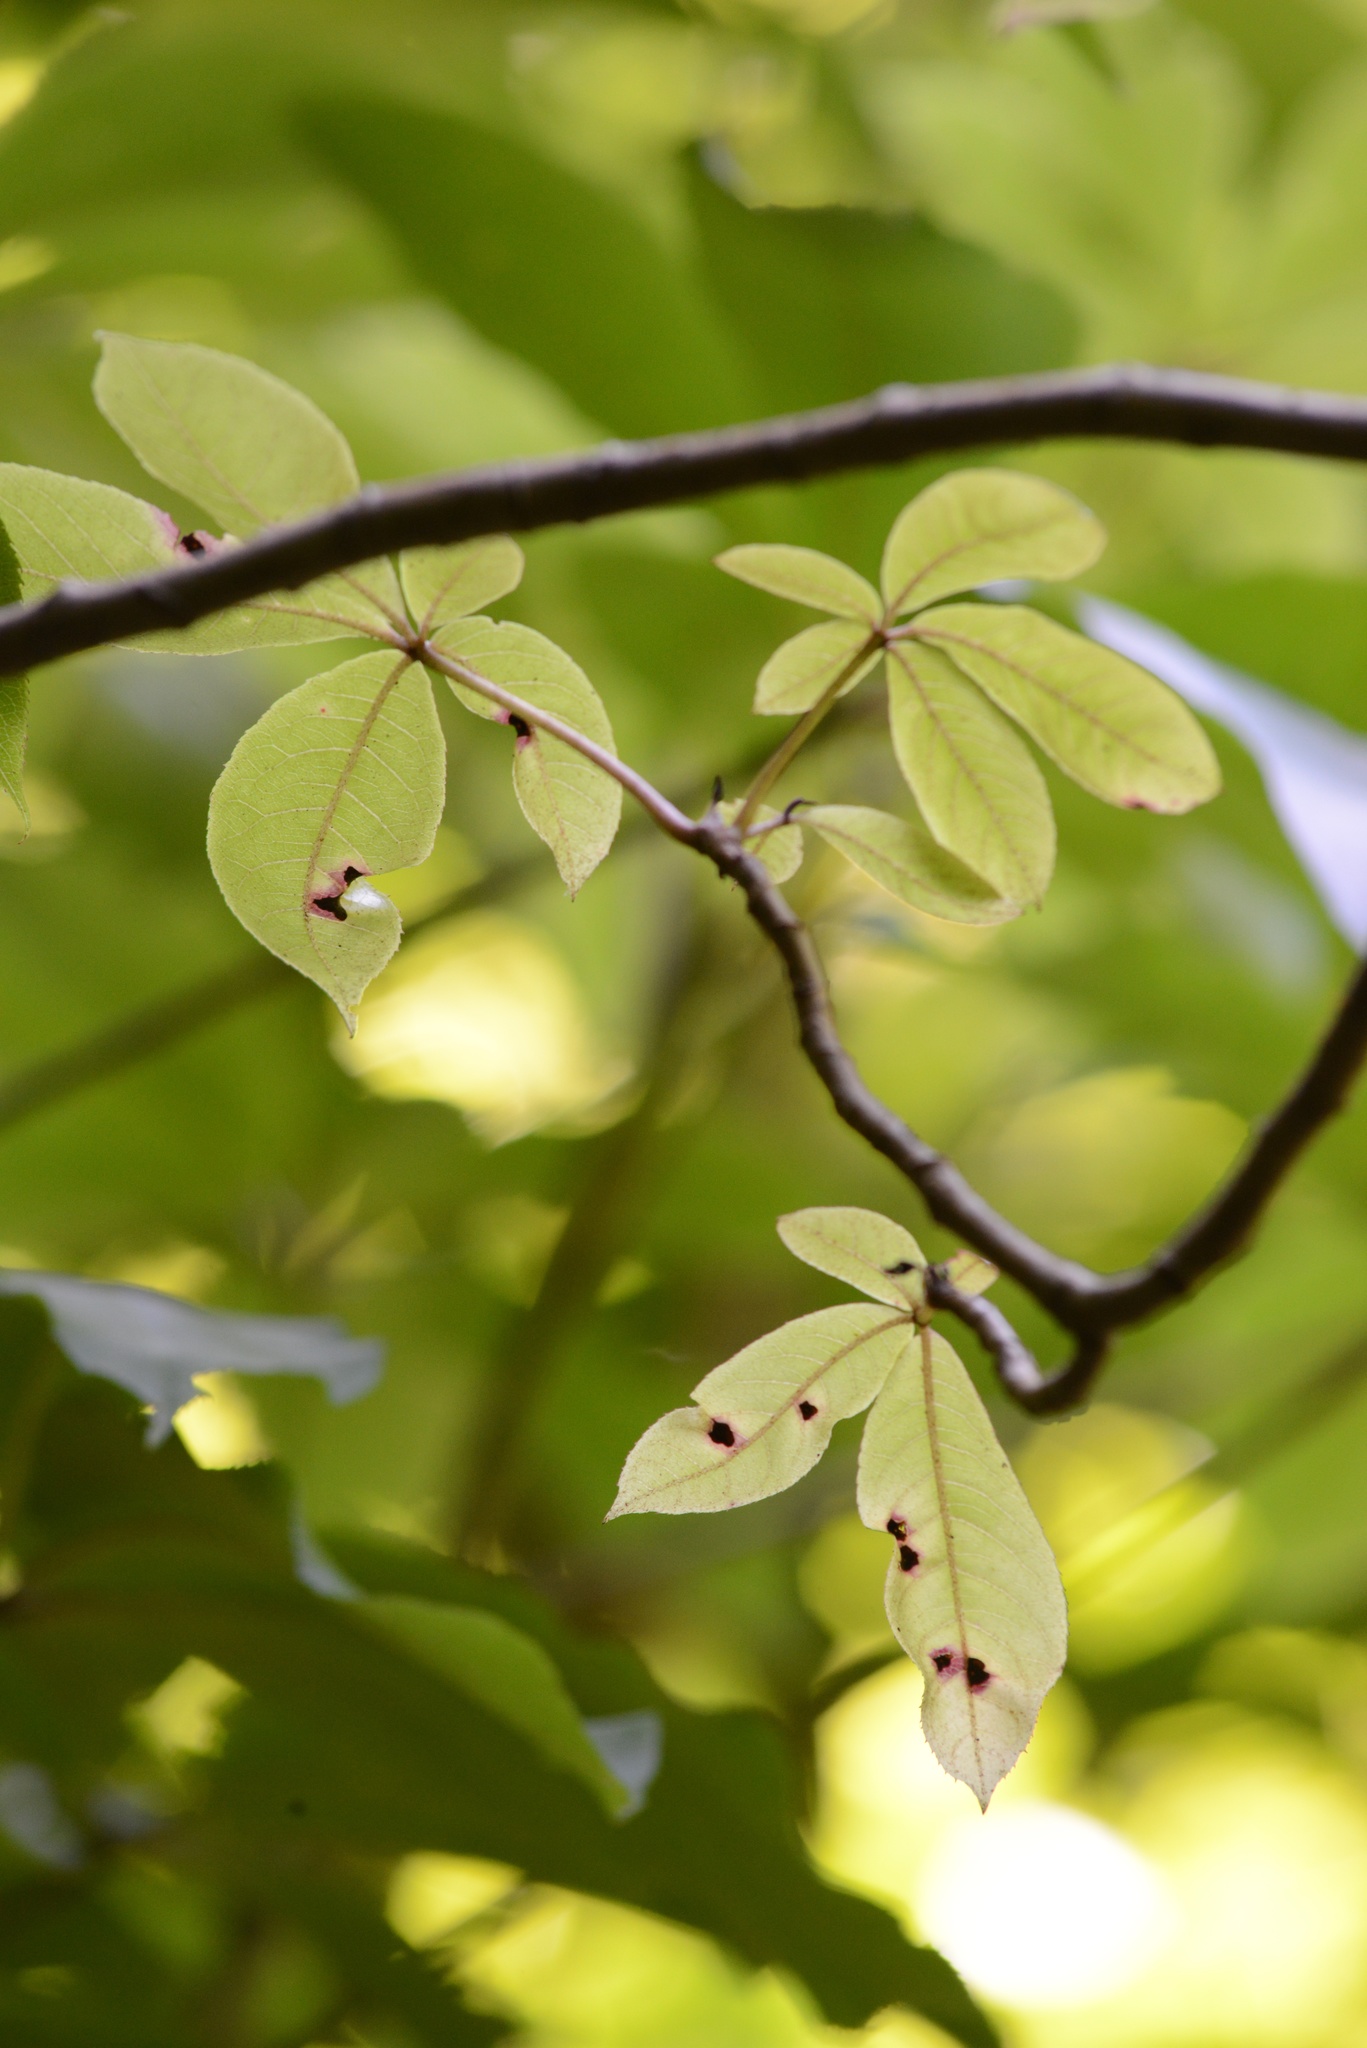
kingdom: Plantae
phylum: Tracheophyta
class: Magnoliopsida
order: Apiales
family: Araliaceae
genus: Schefflera
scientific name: Schefflera digitata
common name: Pate
